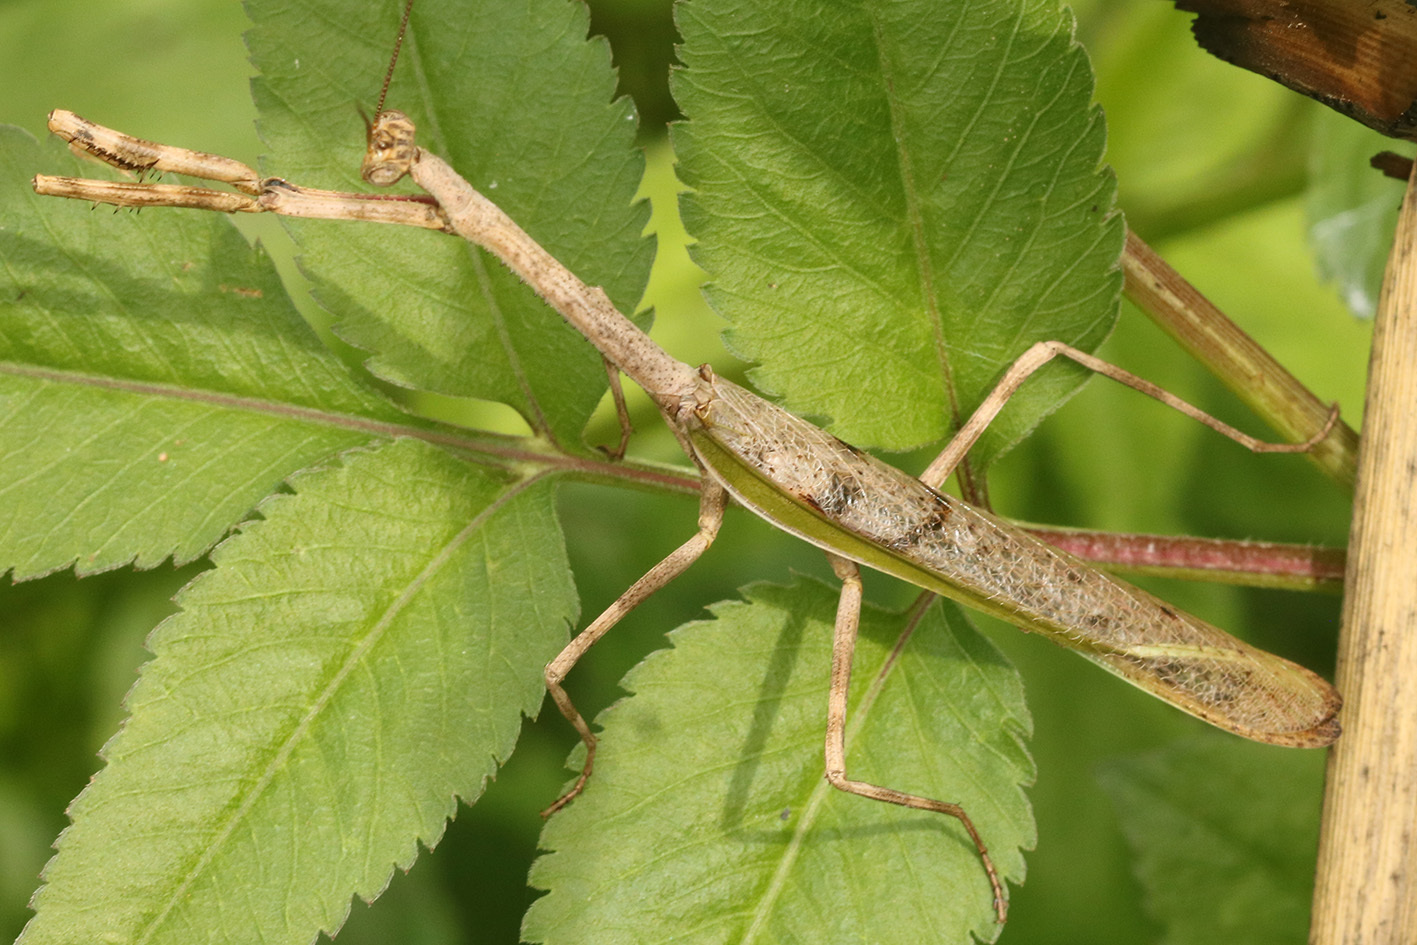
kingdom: Animalia
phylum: Arthropoda
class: Insecta
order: Mantodea
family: Mantidae
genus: Pseudovates
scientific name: Pseudovates iheringi
